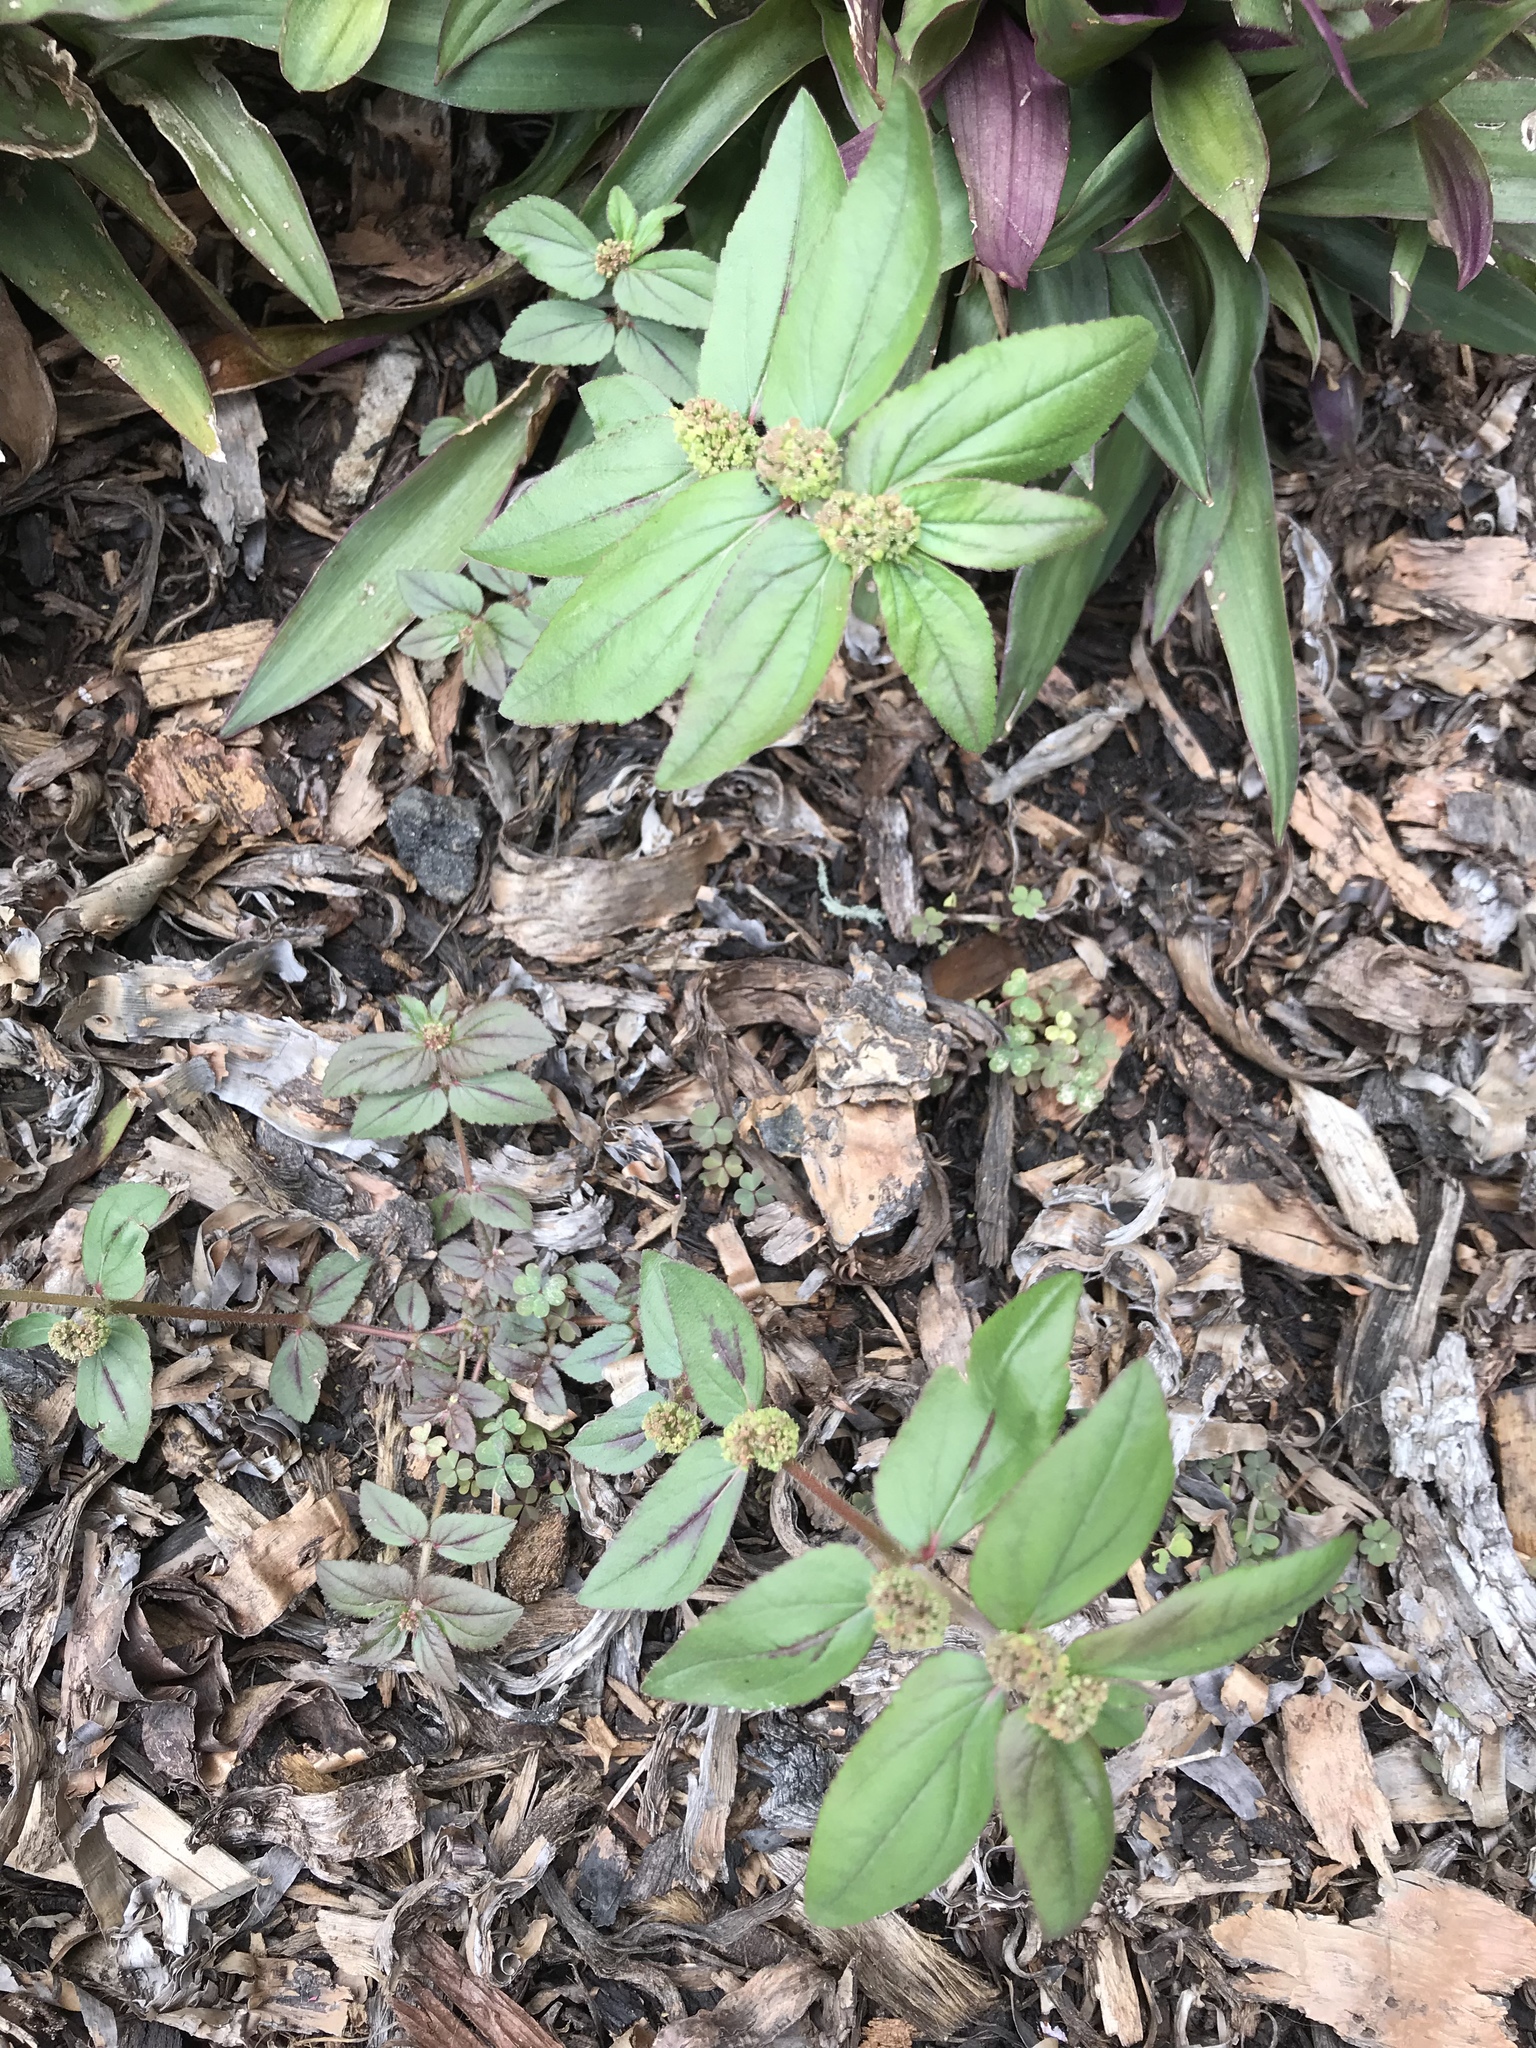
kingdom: Plantae
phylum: Tracheophyta
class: Magnoliopsida
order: Malpighiales
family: Euphorbiaceae
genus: Euphorbia
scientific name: Euphorbia hirta
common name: Pillpod sandmat
